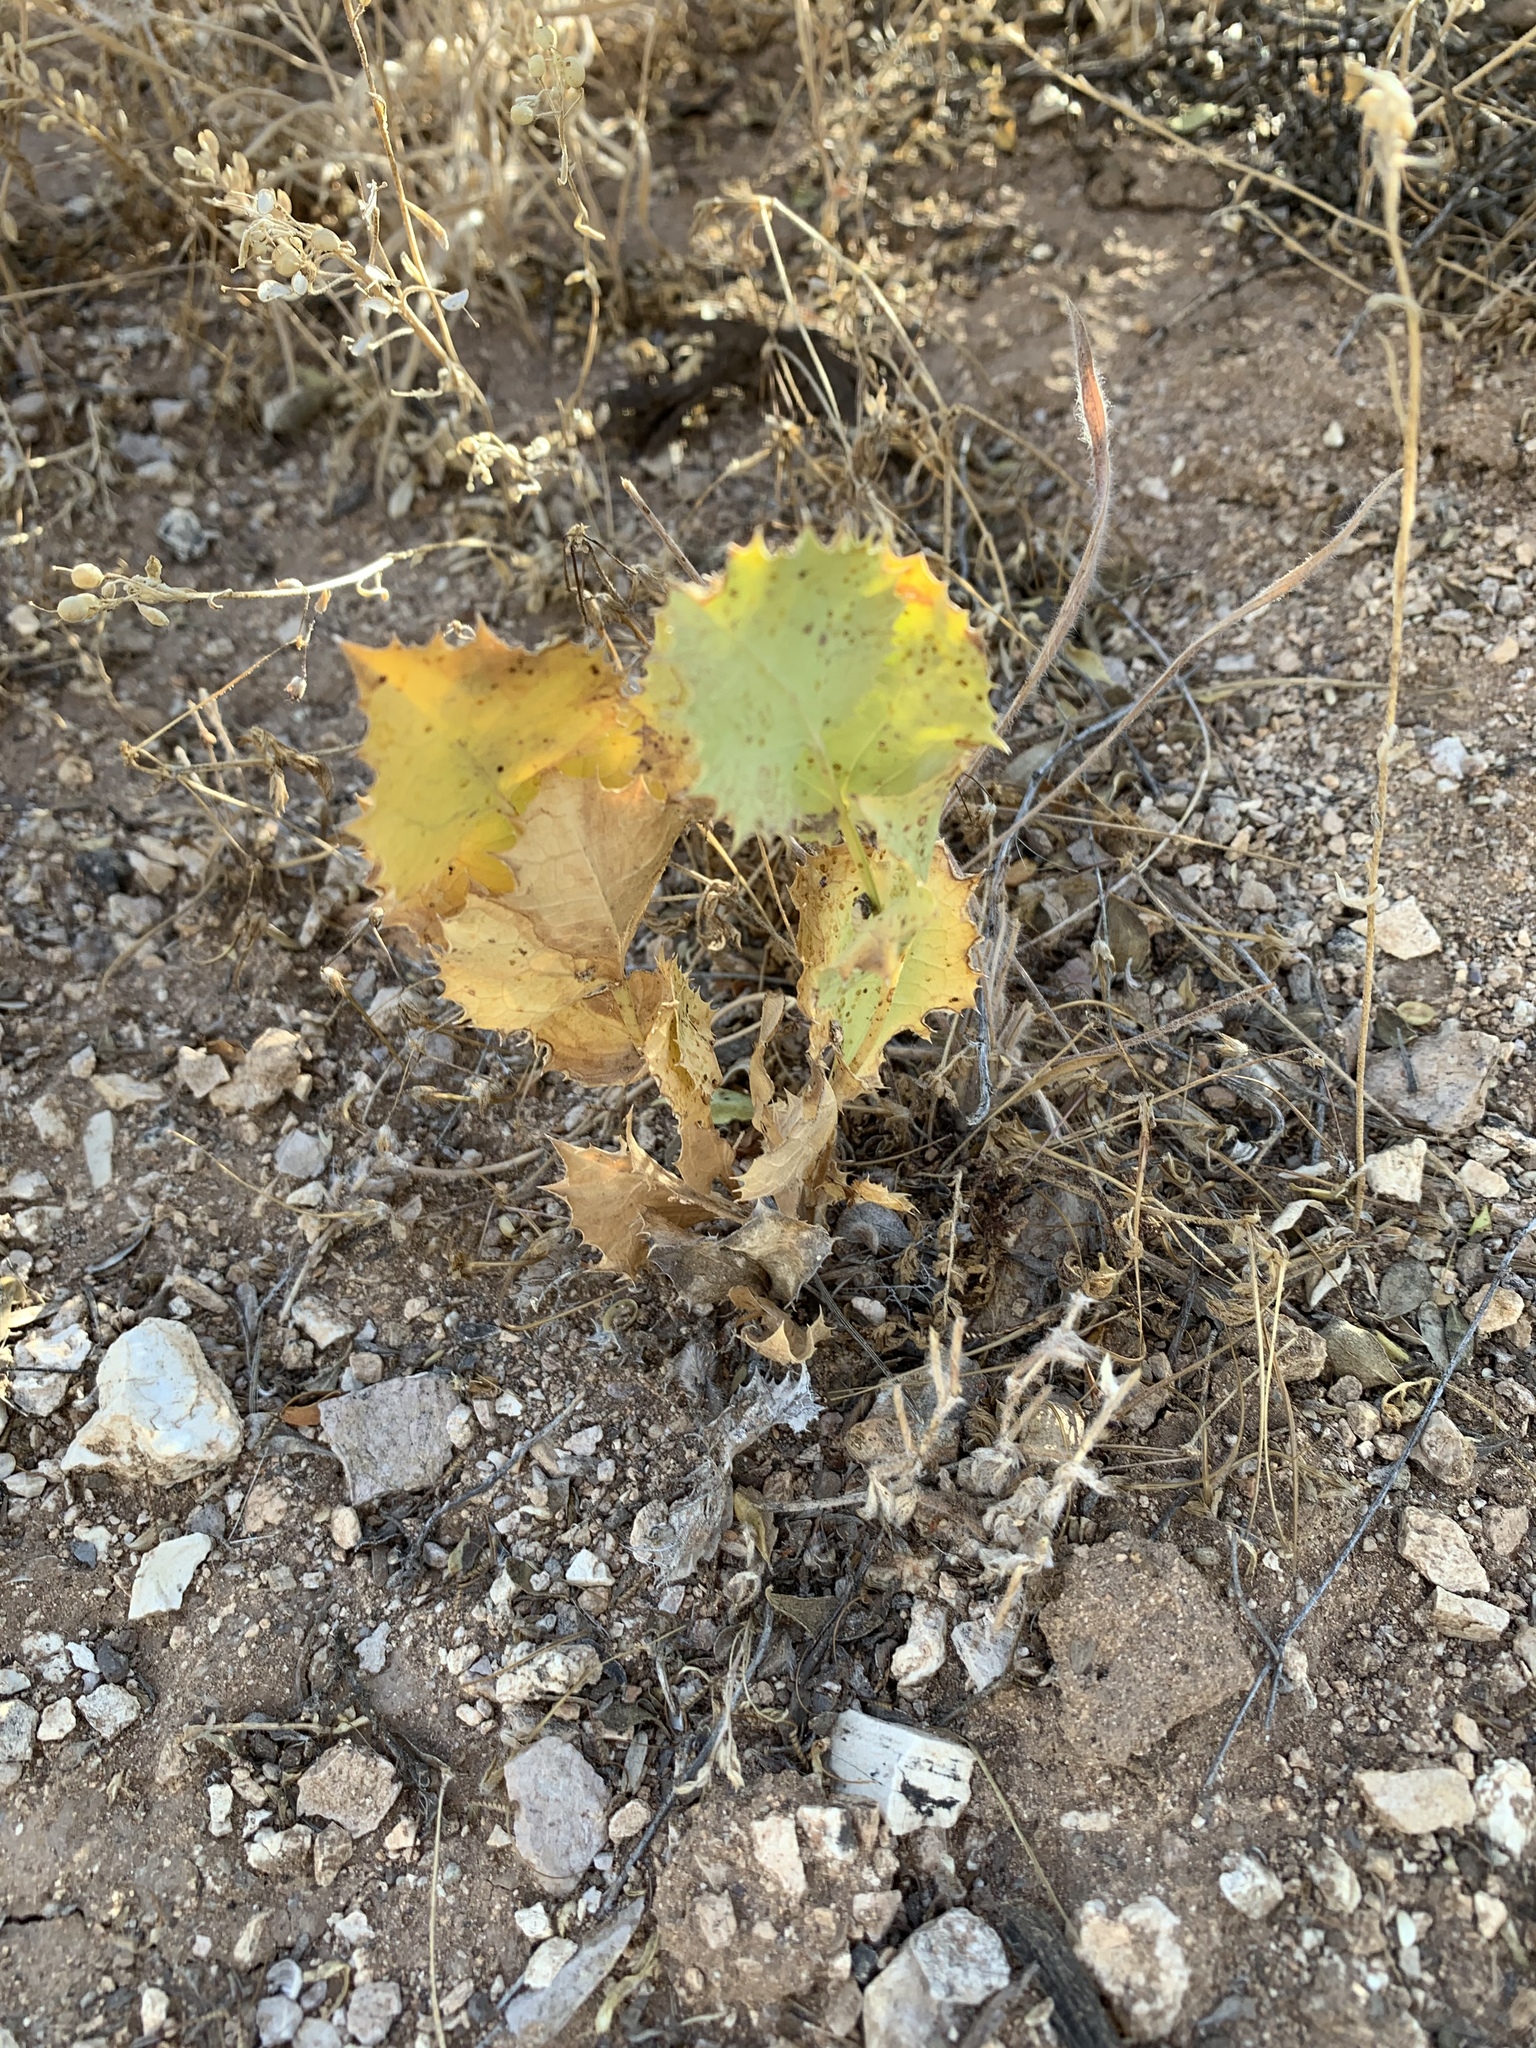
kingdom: Plantae
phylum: Tracheophyta
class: Magnoliopsida
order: Asterales
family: Asteraceae
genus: Acourtia
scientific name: Acourtia nana
